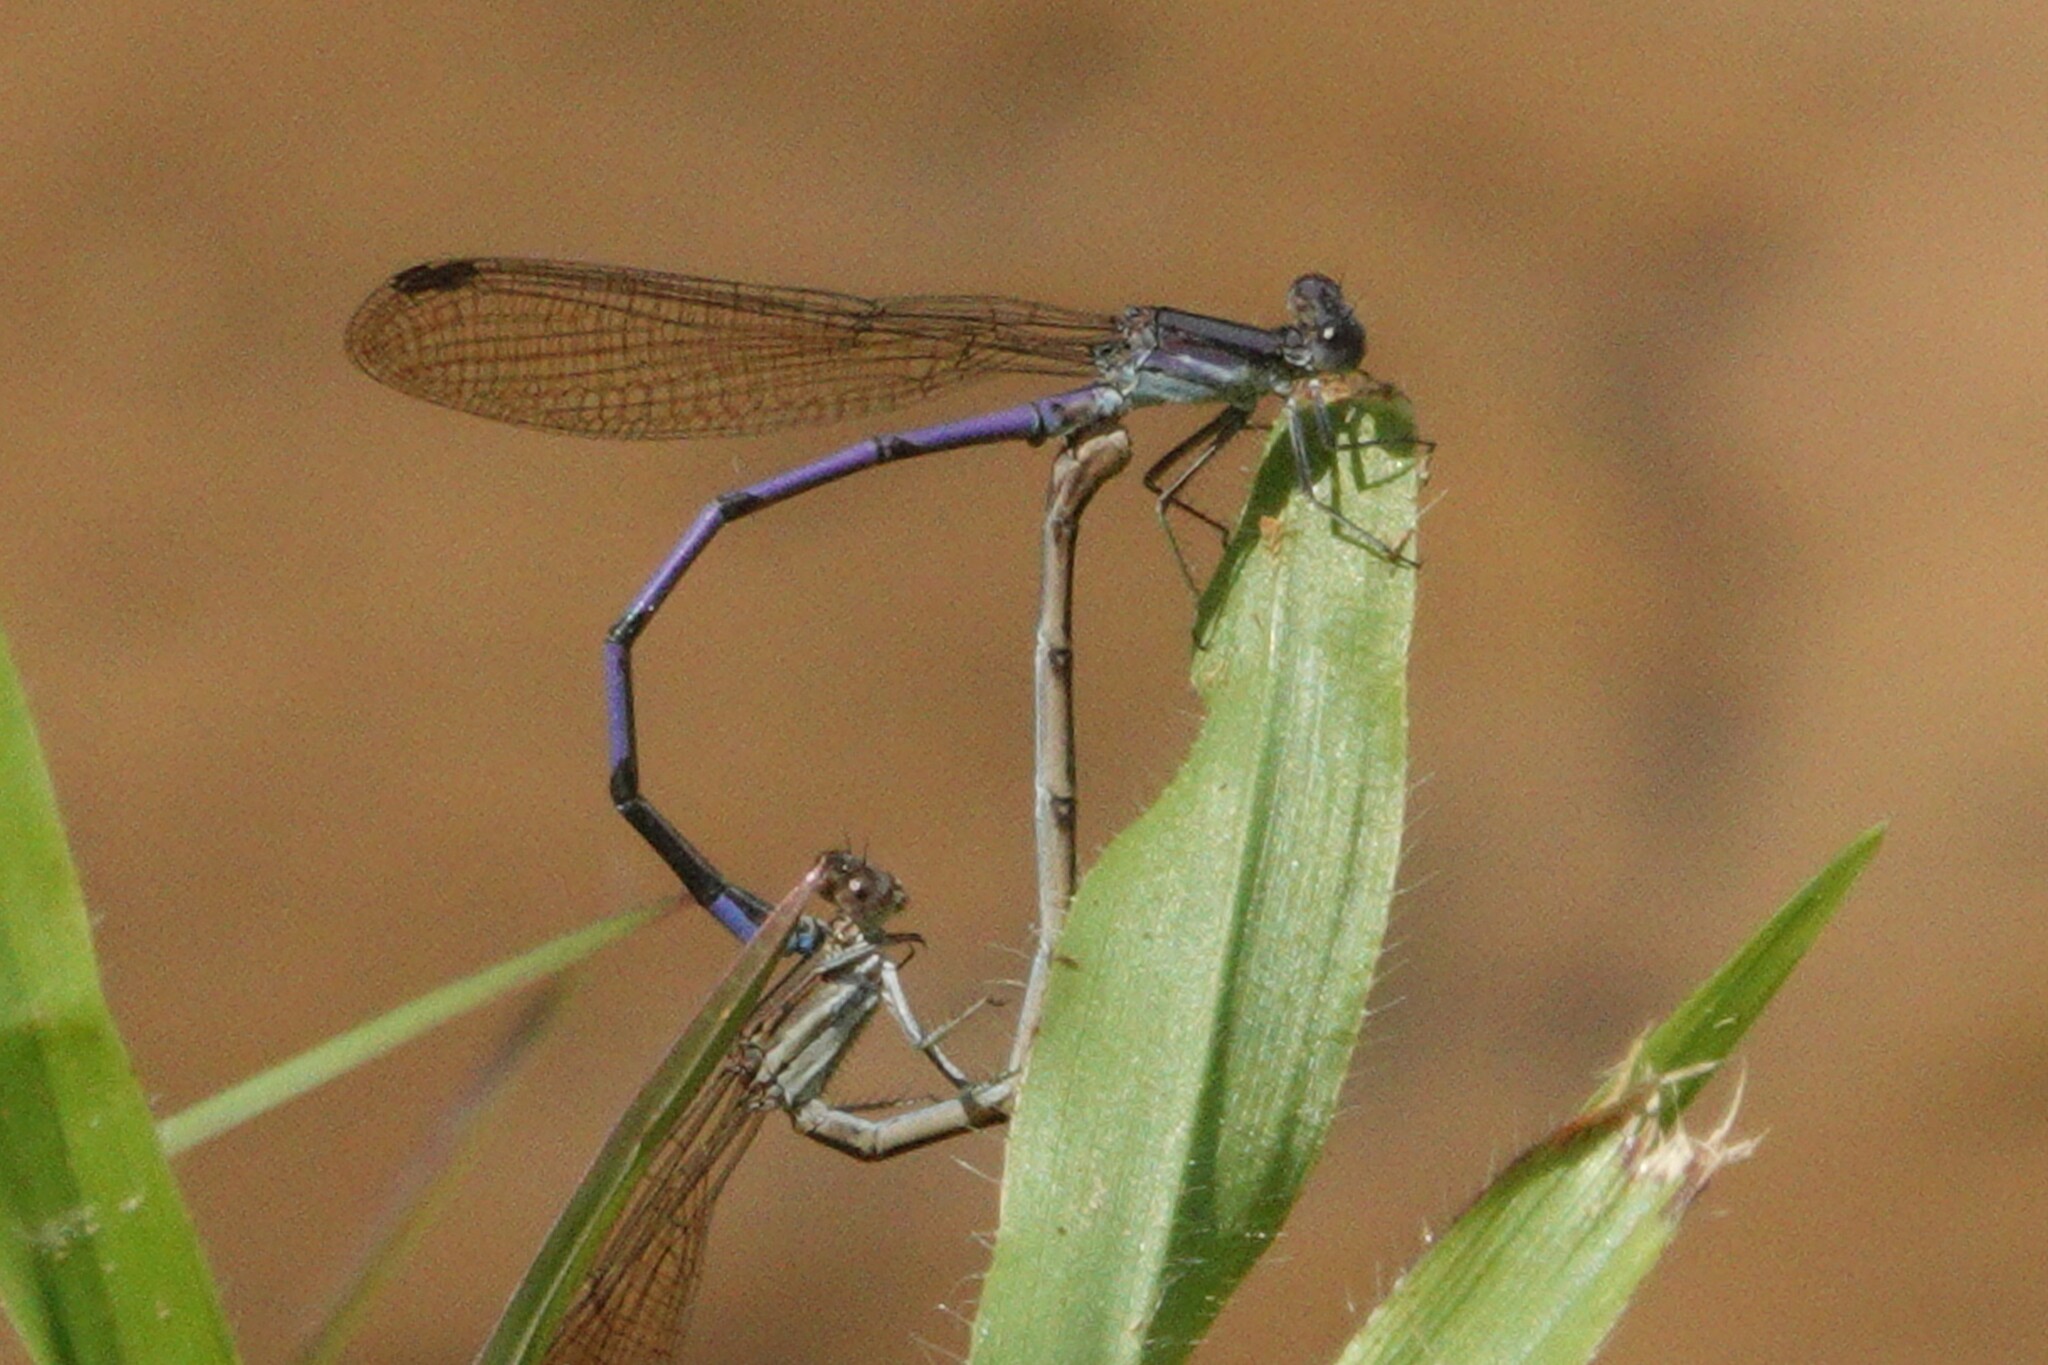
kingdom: Animalia
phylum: Arthropoda
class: Insecta
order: Odonata
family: Coenagrionidae
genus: Argia
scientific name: Argia fumipennis
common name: Variable dancer
